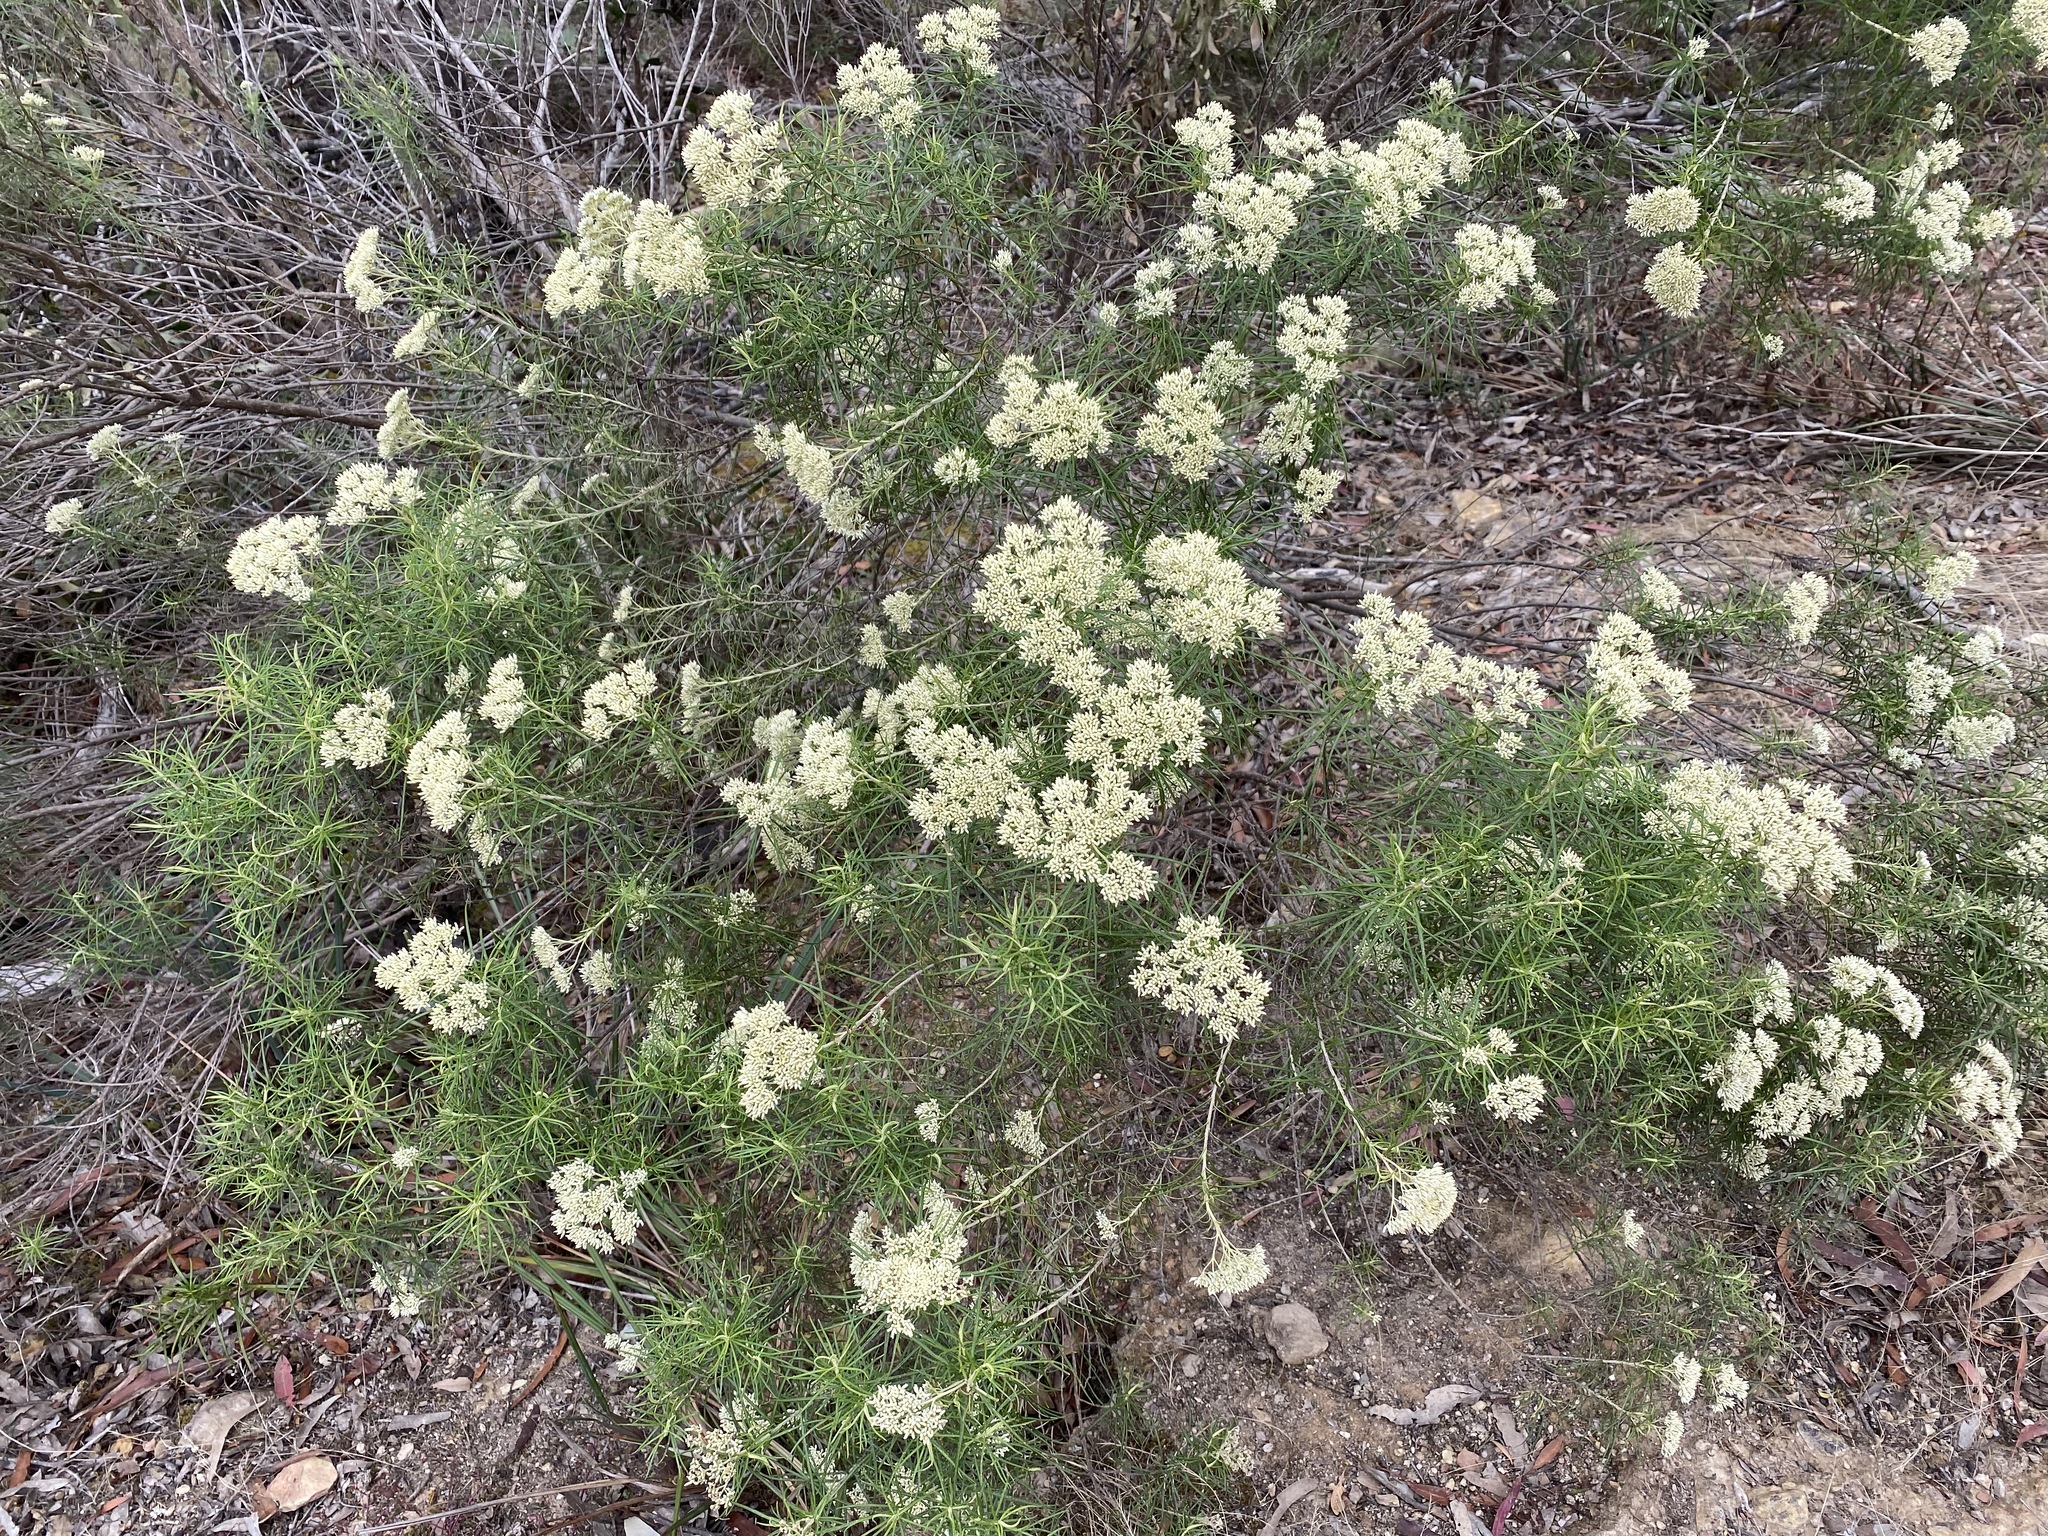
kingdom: Plantae
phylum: Tracheophyta
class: Magnoliopsida
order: Asterales
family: Asteraceae
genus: Cassinia
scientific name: Cassinia longifolia
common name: Longleaf-dogwood
